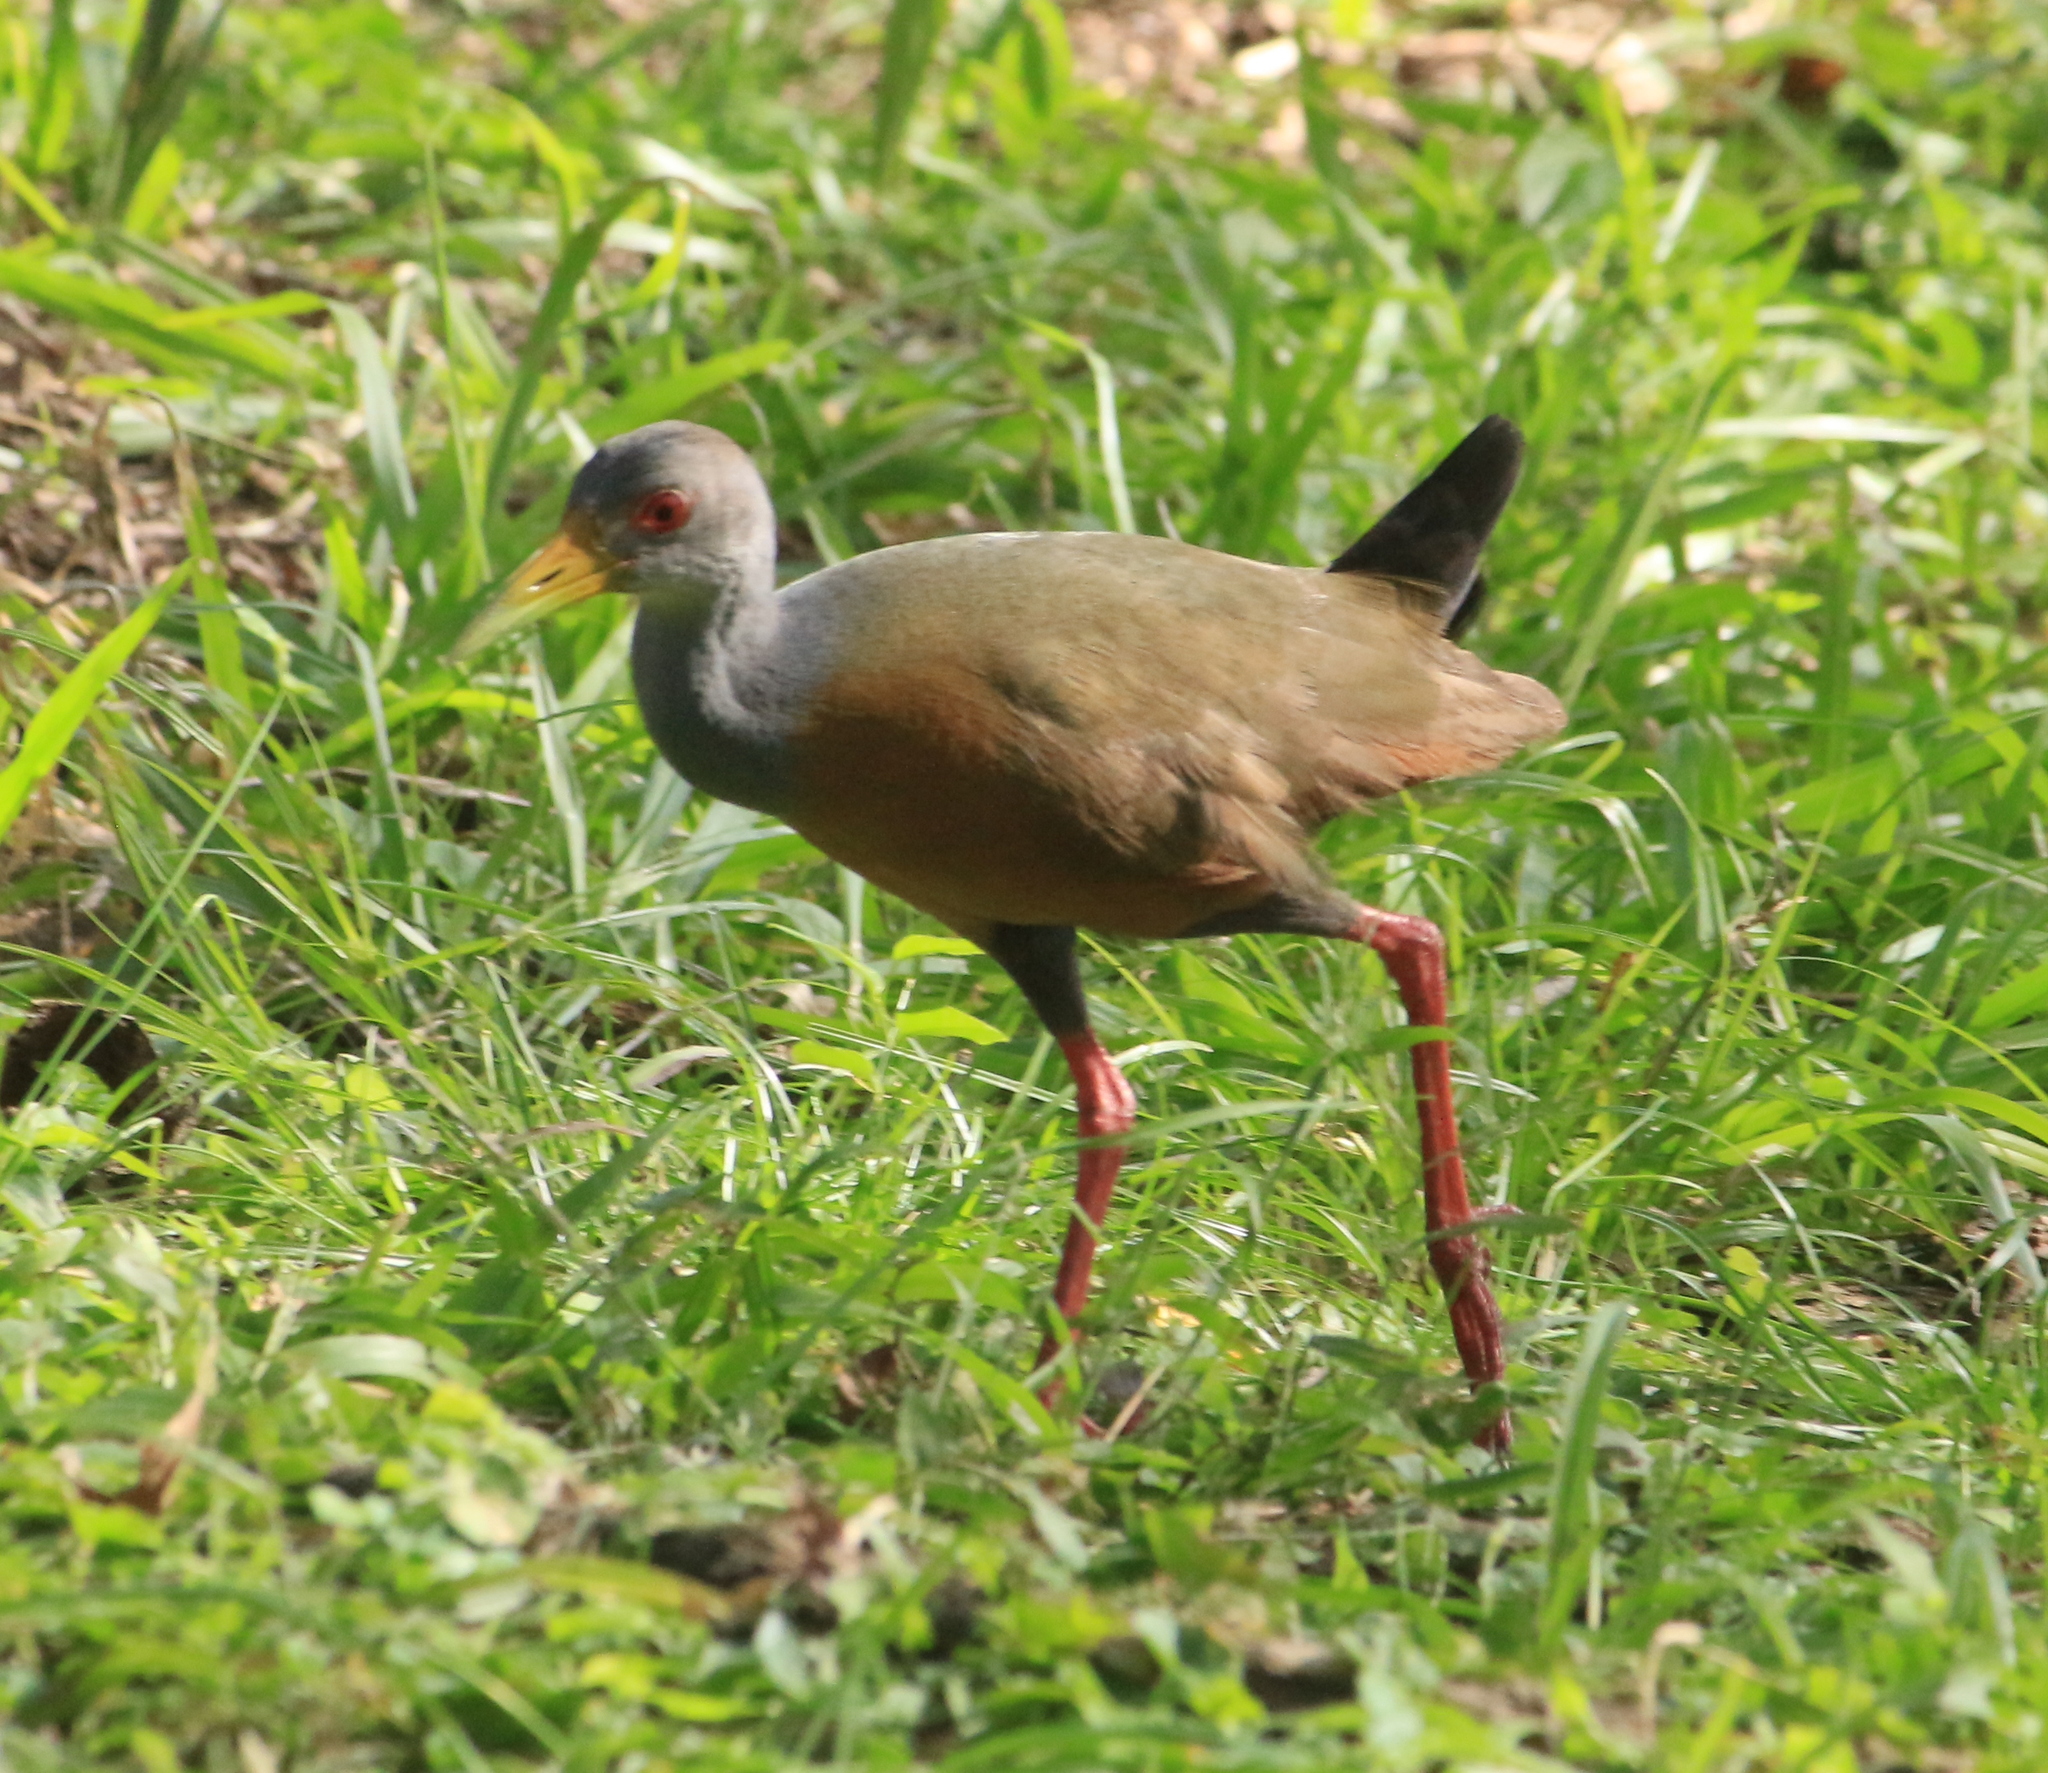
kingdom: Animalia
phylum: Chordata
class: Aves
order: Gruiformes
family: Rallidae
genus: Aramides
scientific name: Aramides cajanea
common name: Gray-necked wood-rail
